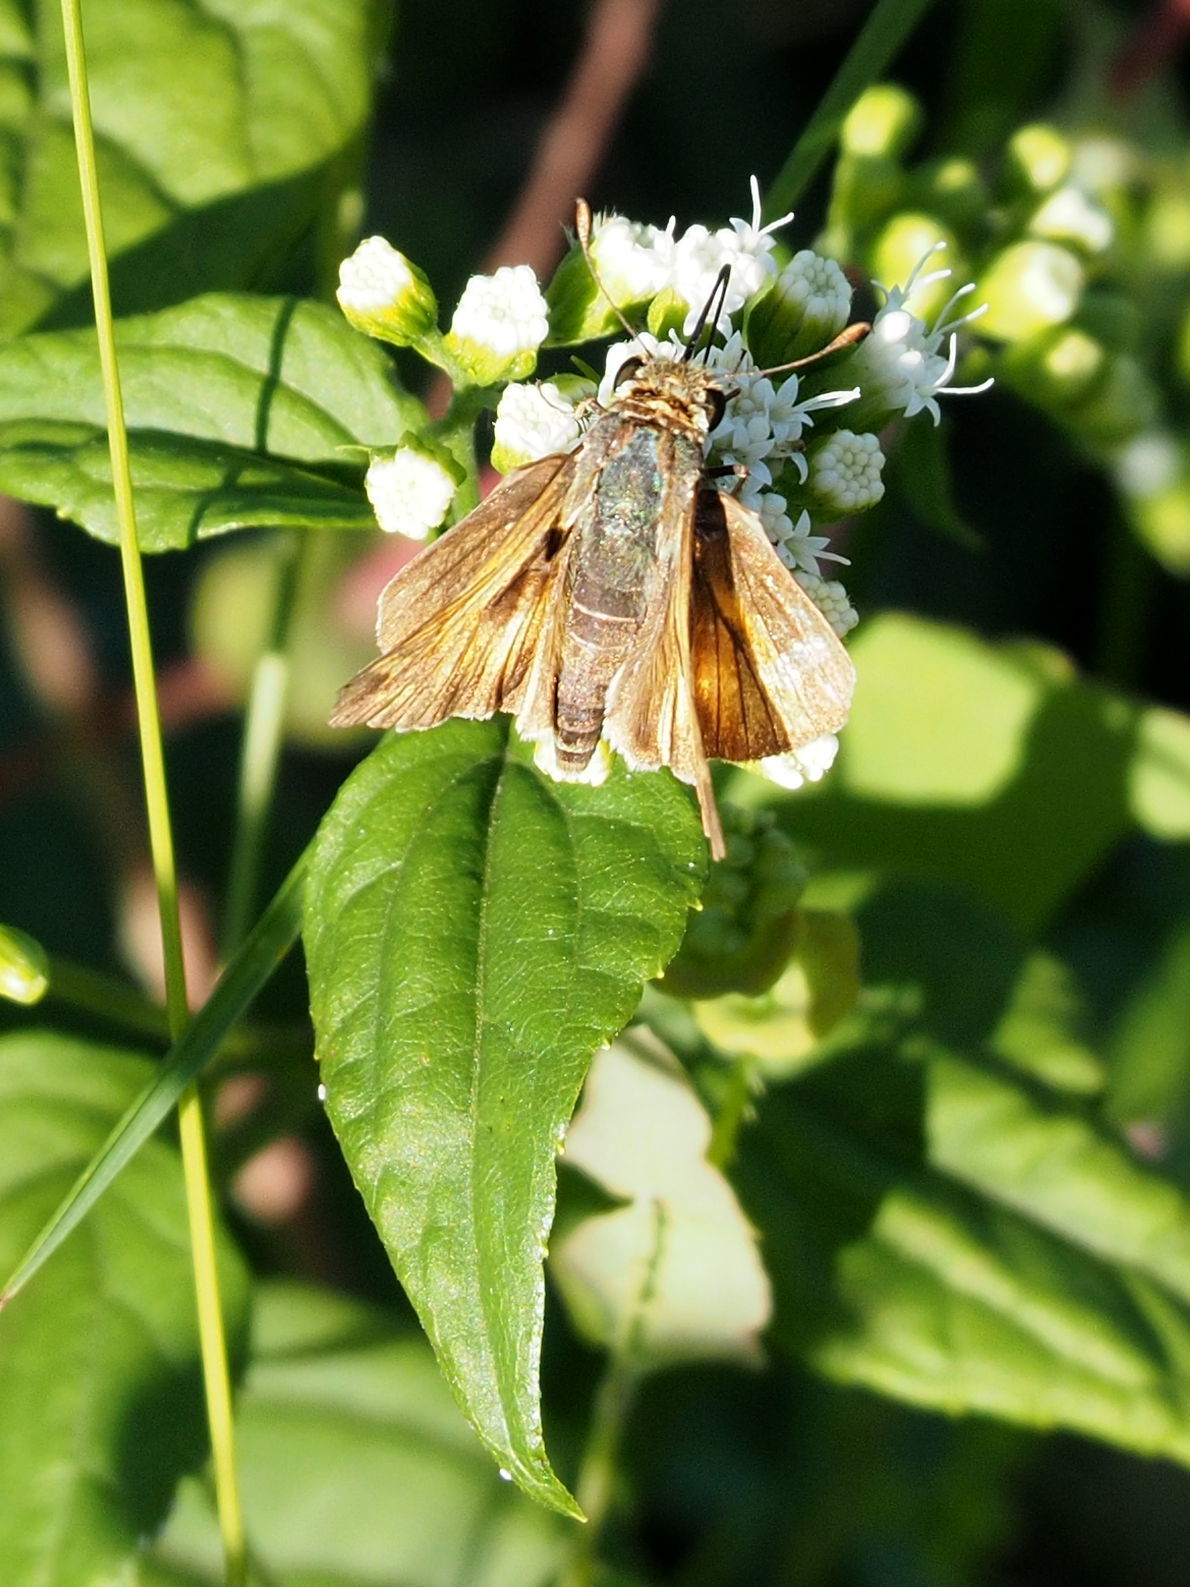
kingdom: Animalia
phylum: Arthropoda
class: Insecta
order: Lepidoptera
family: Hesperiidae
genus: Atalopedes
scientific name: Atalopedes
